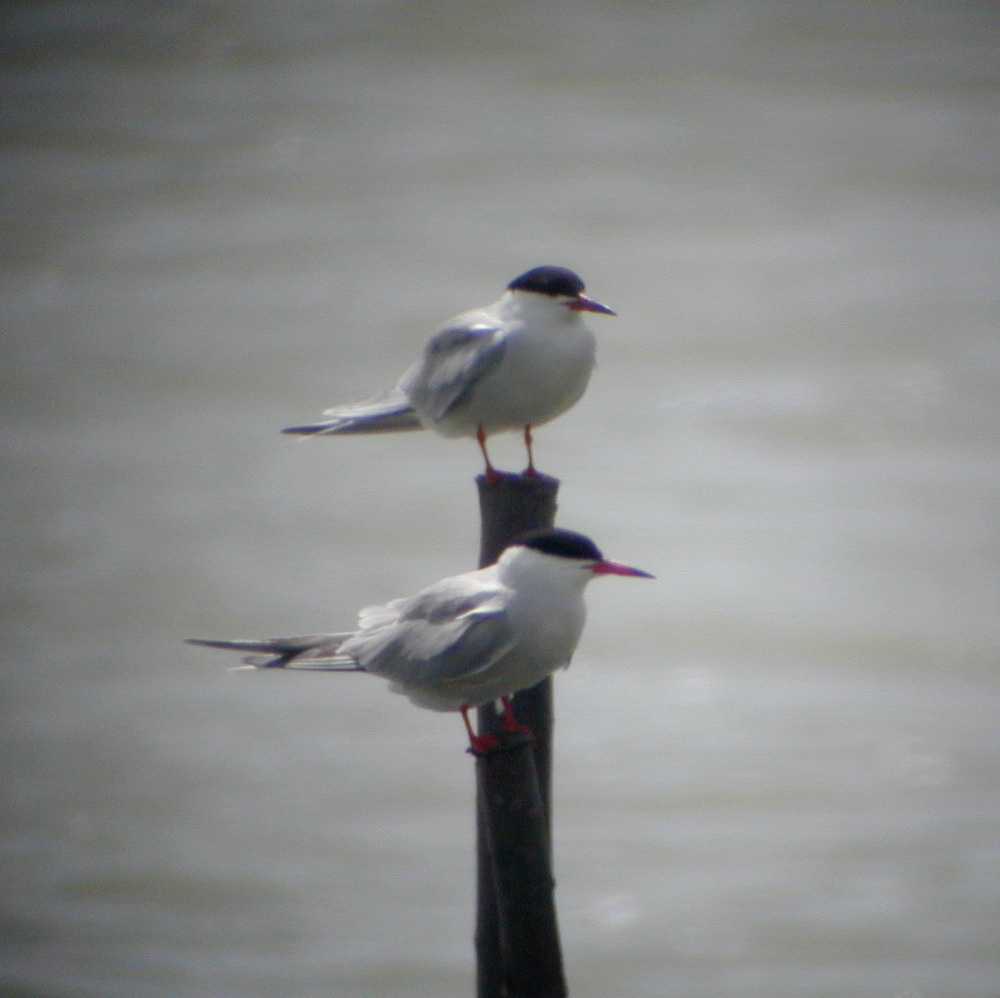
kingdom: Animalia
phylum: Chordata
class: Aves
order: Charadriiformes
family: Laridae
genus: Sterna
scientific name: Sterna hirundo
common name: Common tern
